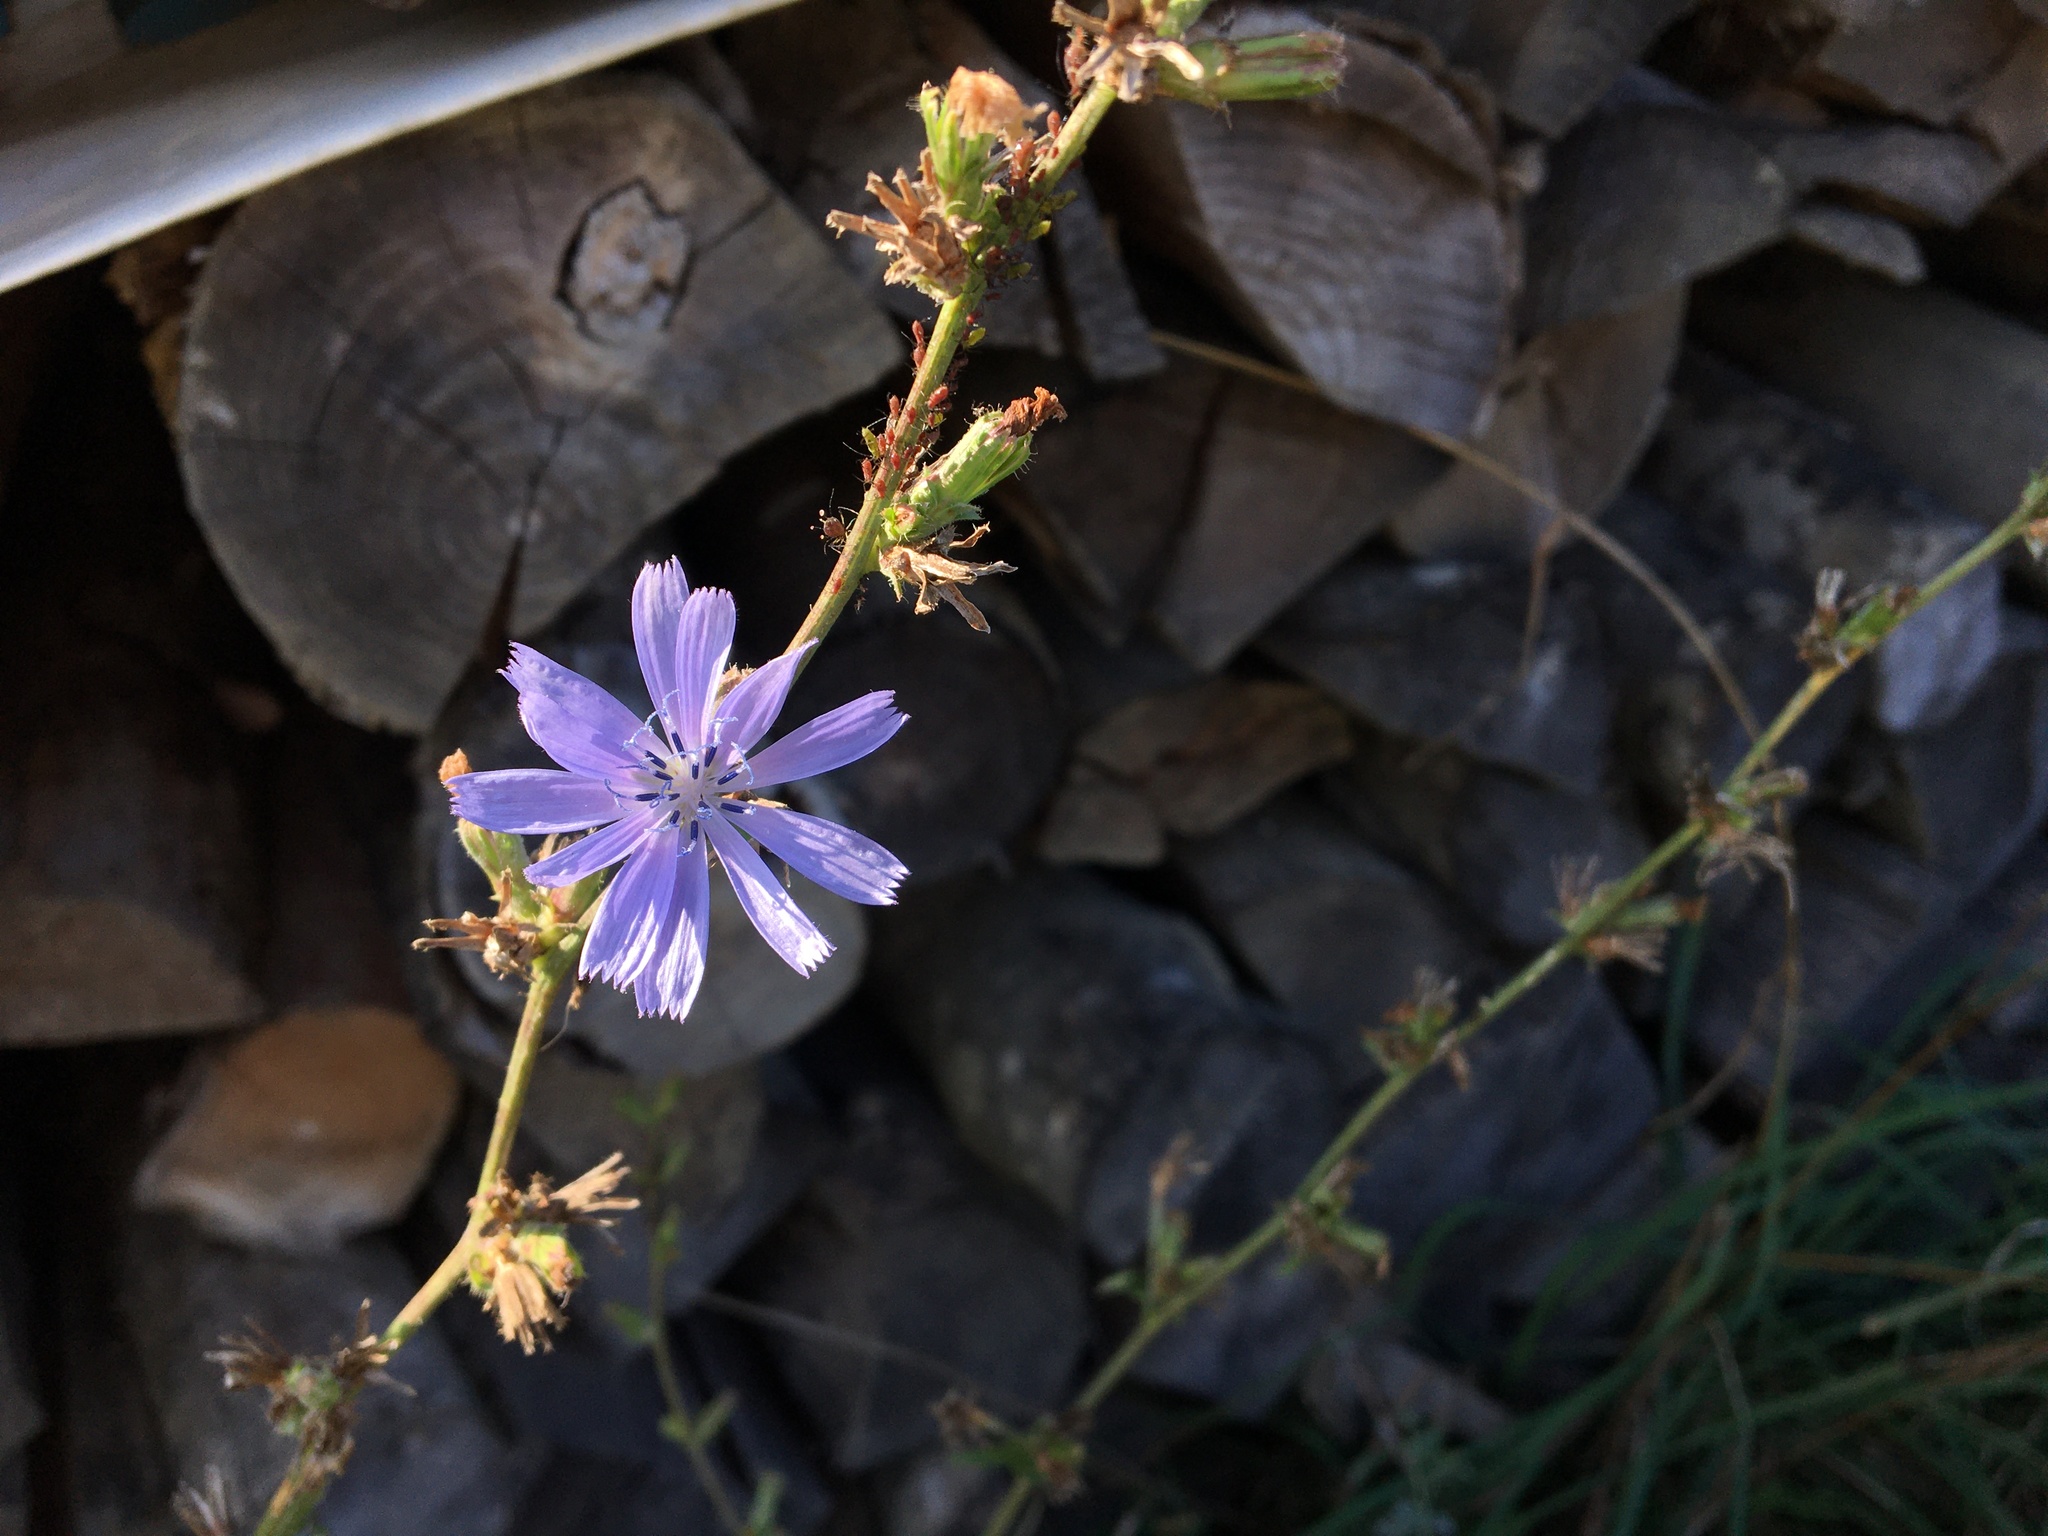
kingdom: Plantae
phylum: Tracheophyta
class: Magnoliopsida
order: Asterales
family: Asteraceae
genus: Cichorium
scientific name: Cichorium intybus
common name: Chicory
